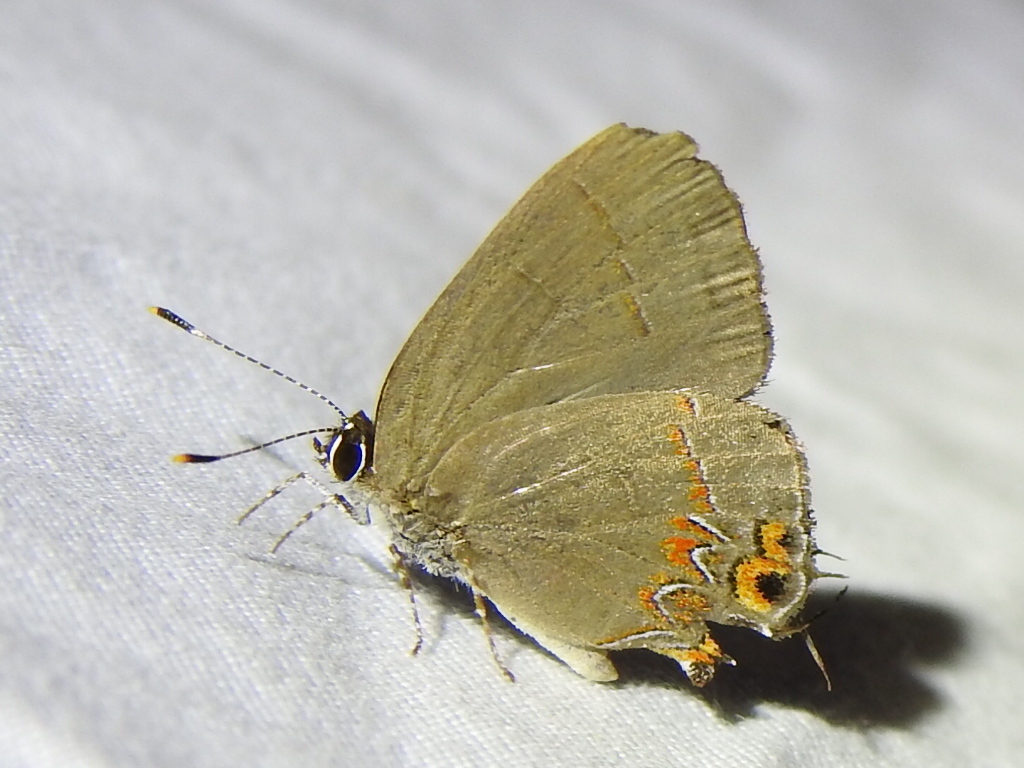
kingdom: Animalia
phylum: Arthropoda
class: Insecta
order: Lepidoptera
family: Lycaenidae
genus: Calycopis
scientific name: Calycopis isobeon
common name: Dusky-blue groundstreak
